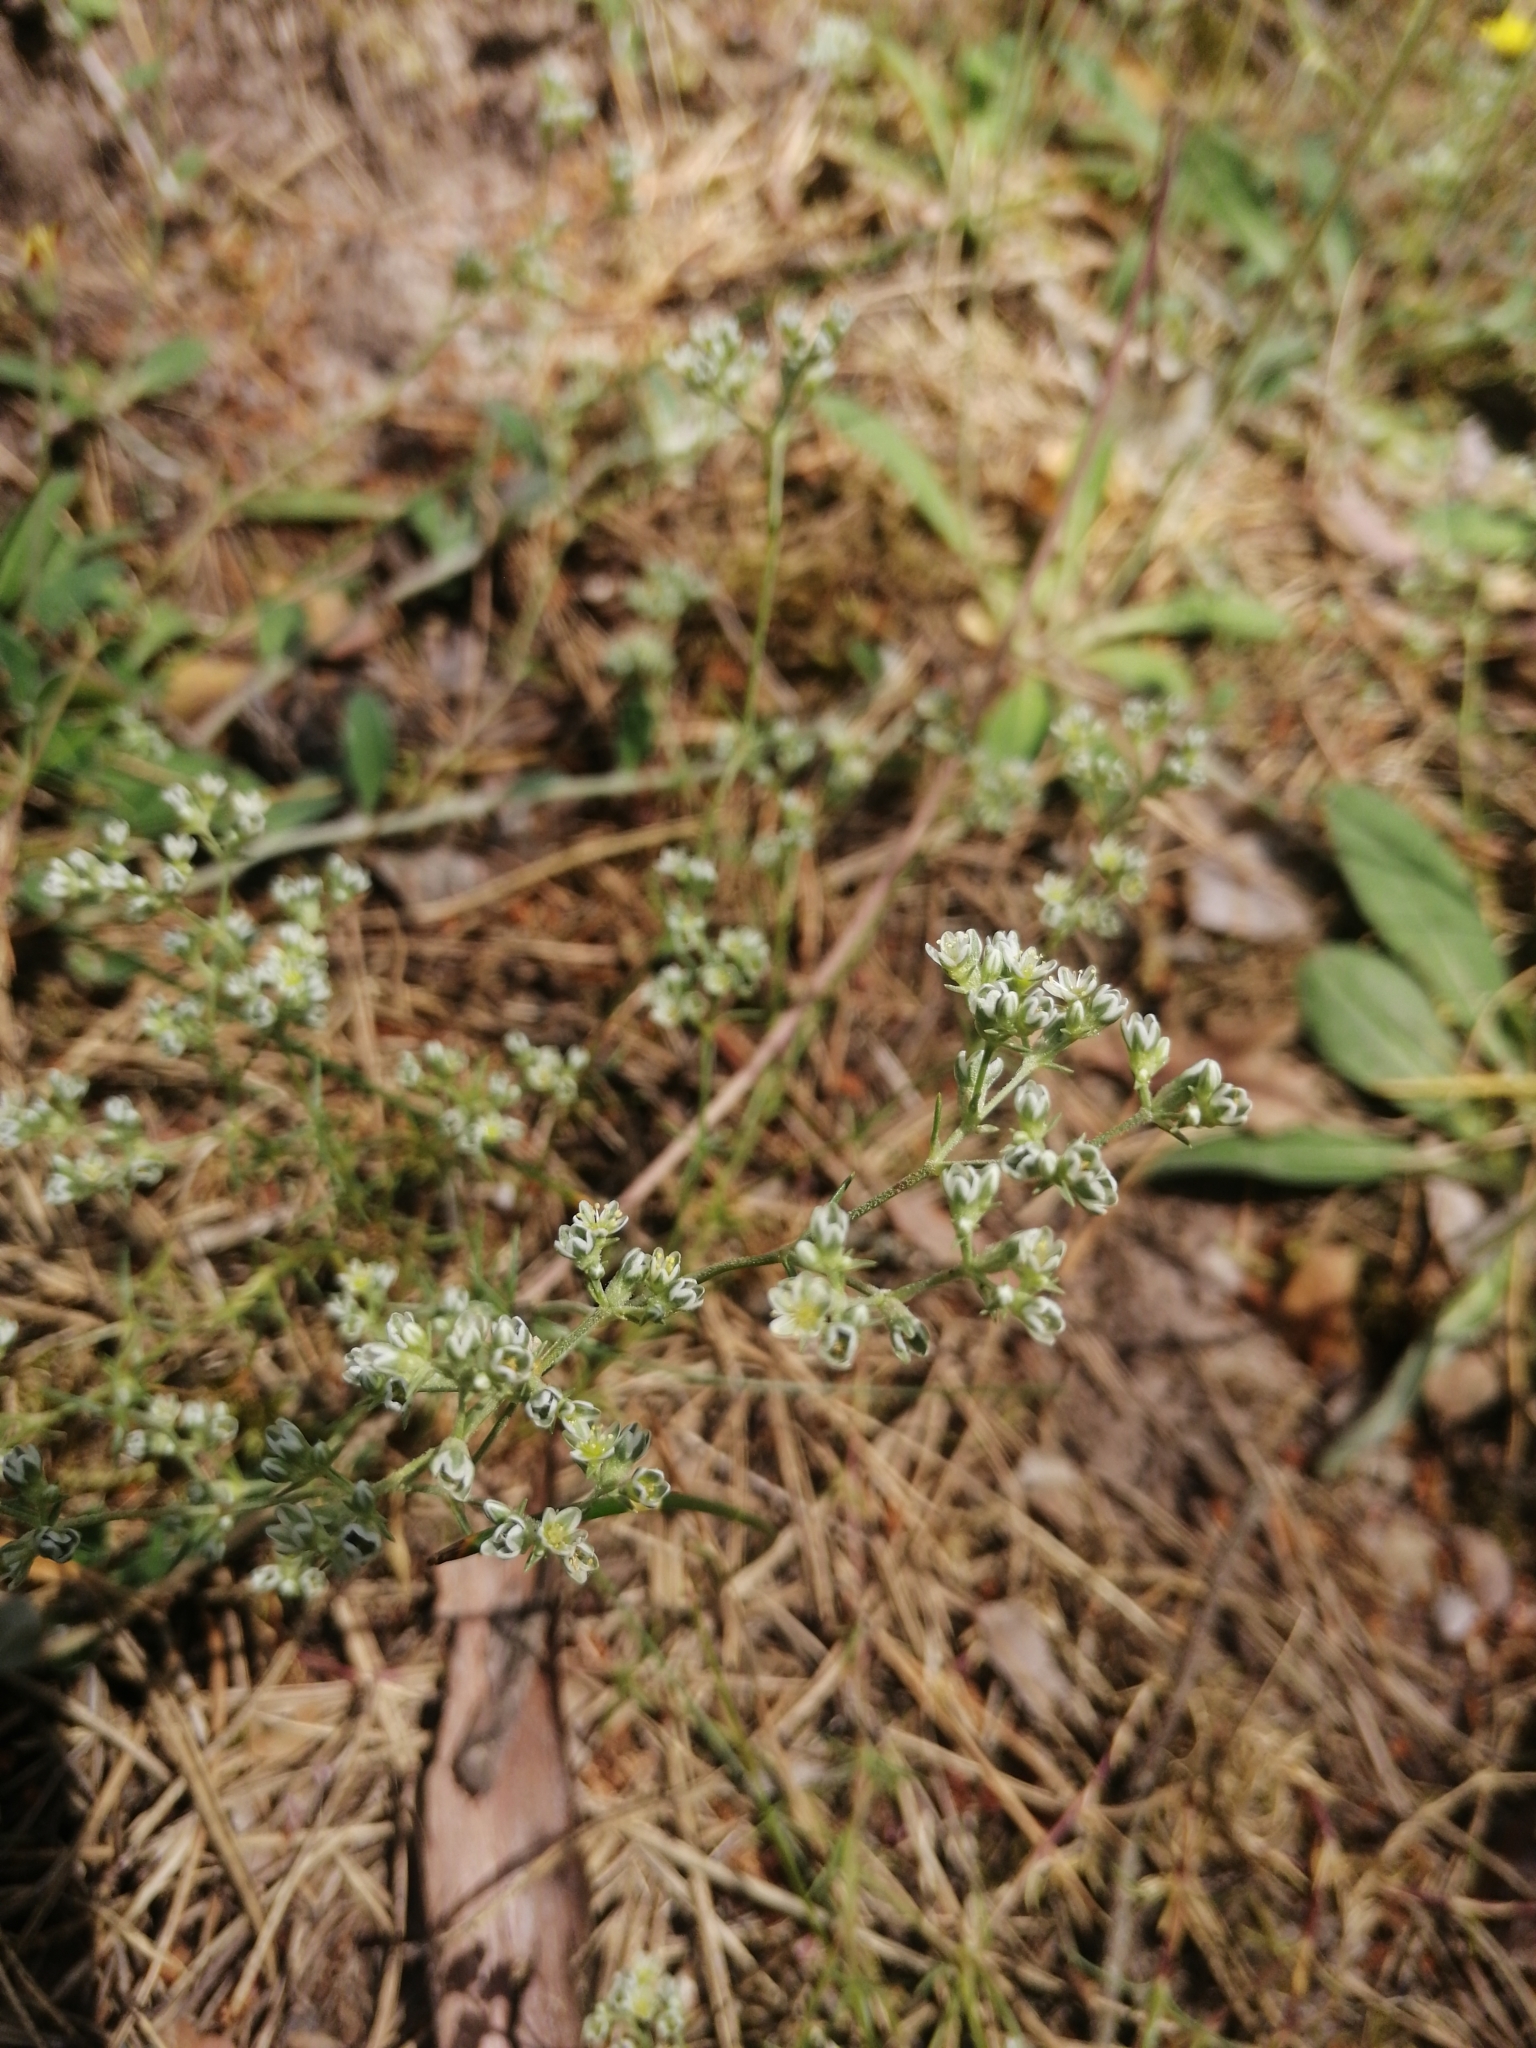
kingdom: Plantae
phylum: Tracheophyta
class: Magnoliopsida
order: Caryophyllales
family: Caryophyllaceae
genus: Scleranthus
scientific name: Scleranthus perennis
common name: Perennial knawel
